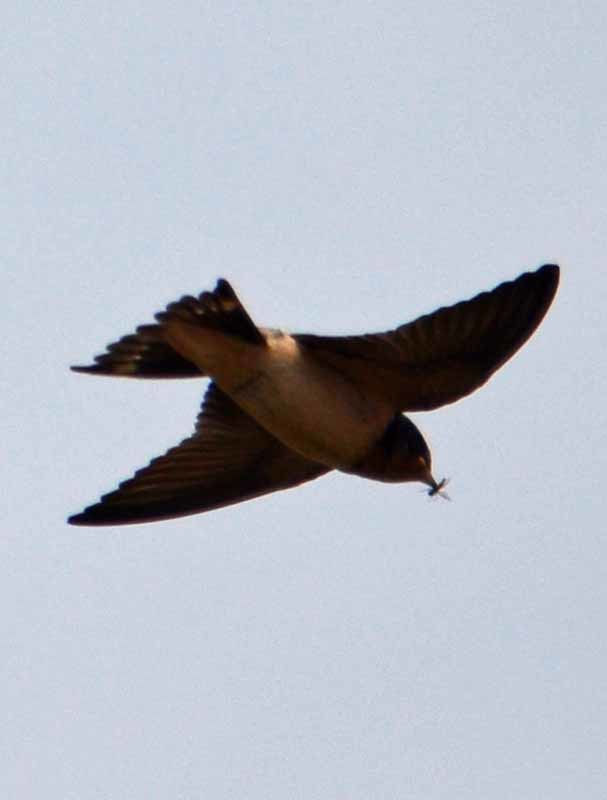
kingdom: Animalia
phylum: Chordata
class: Aves
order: Passeriformes
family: Hirundinidae
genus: Hirundo
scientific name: Hirundo rustica
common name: Barn swallow
